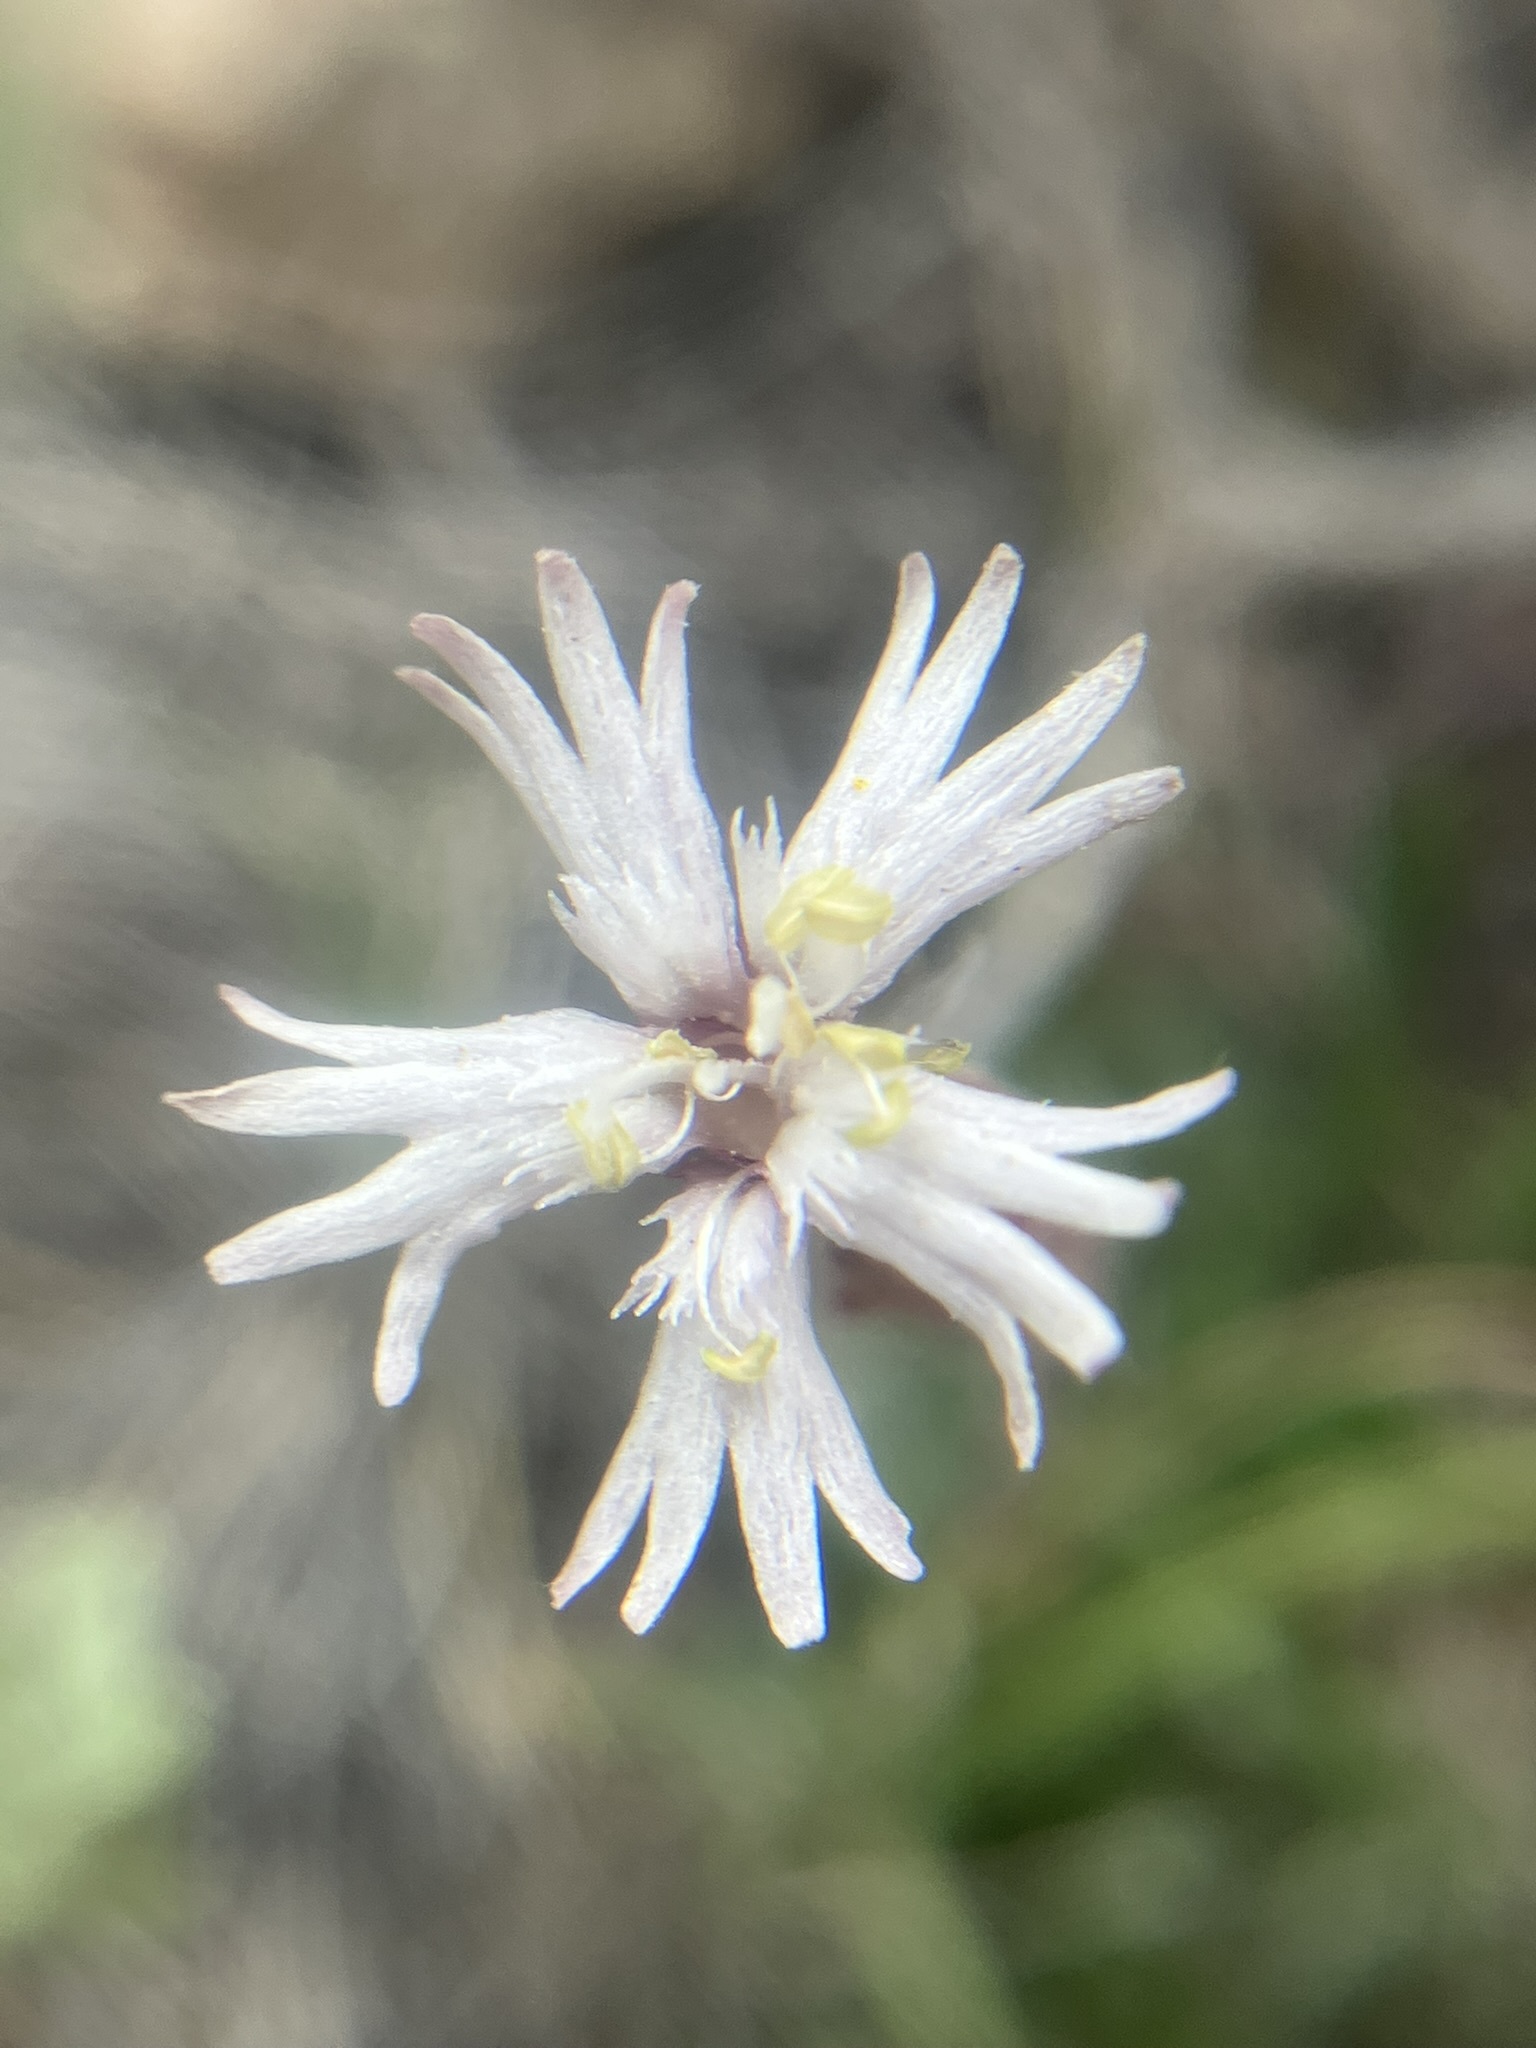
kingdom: Plantae
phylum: Tracheophyta
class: Magnoliopsida
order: Caryophyllales
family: Caryophyllaceae
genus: Silene
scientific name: Silene bernardina
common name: Palmer's catchfly
